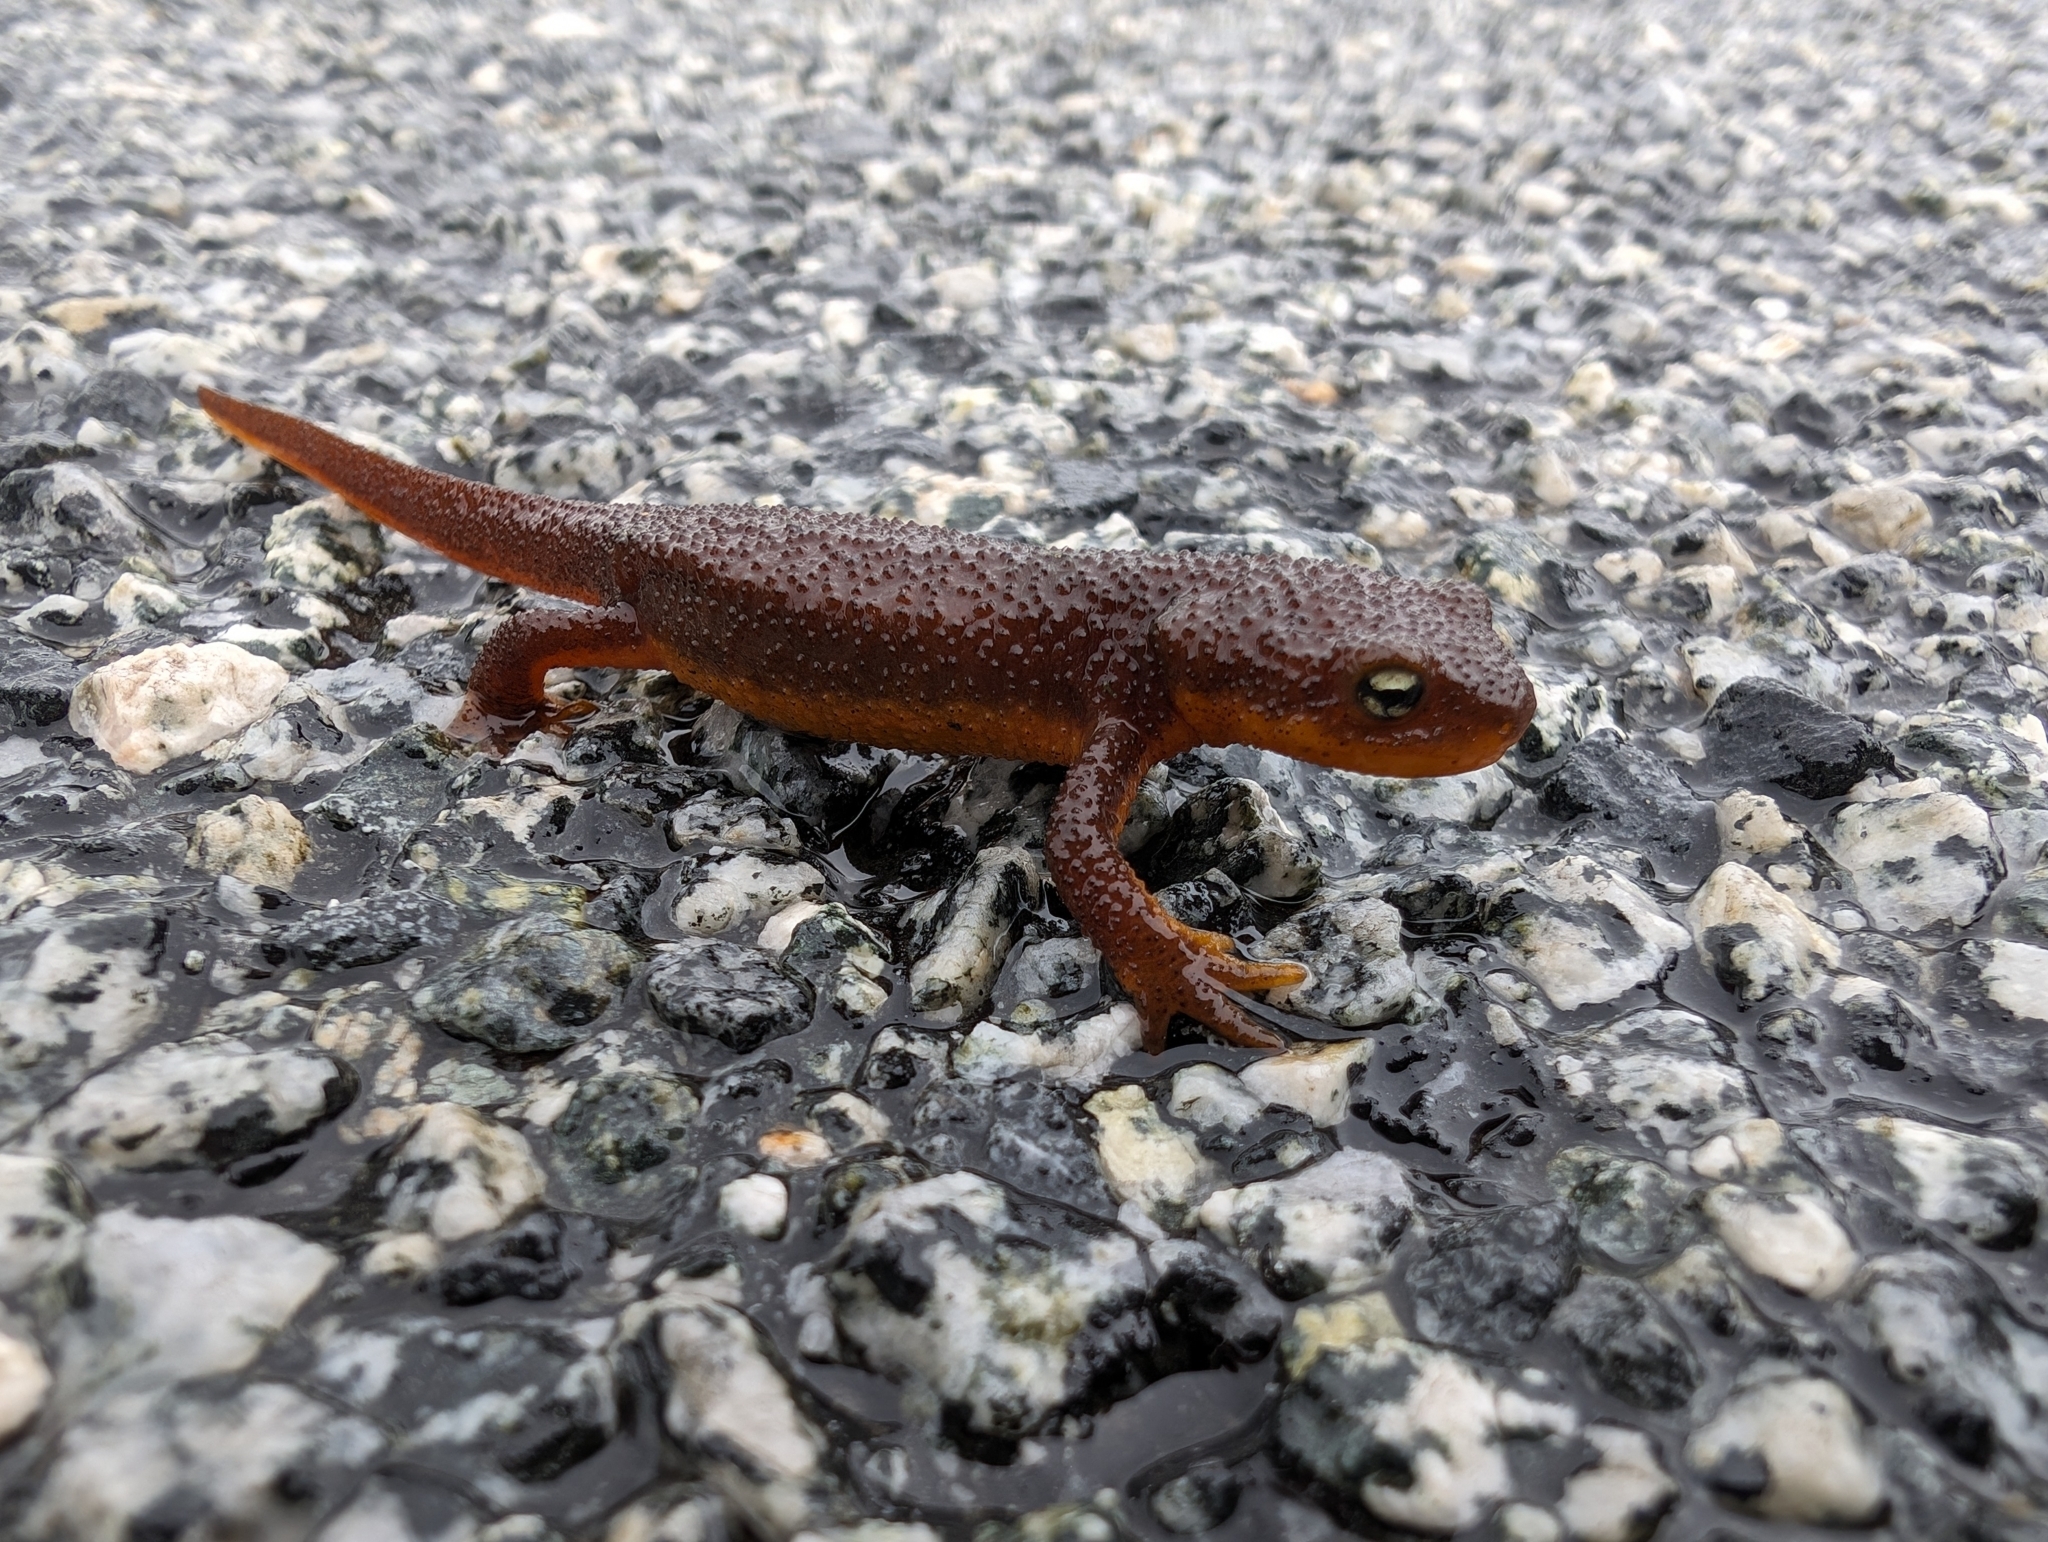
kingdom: Animalia
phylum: Chordata
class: Amphibia
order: Caudata
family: Salamandridae
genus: Taricha
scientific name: Taricha torosa
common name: California newt
